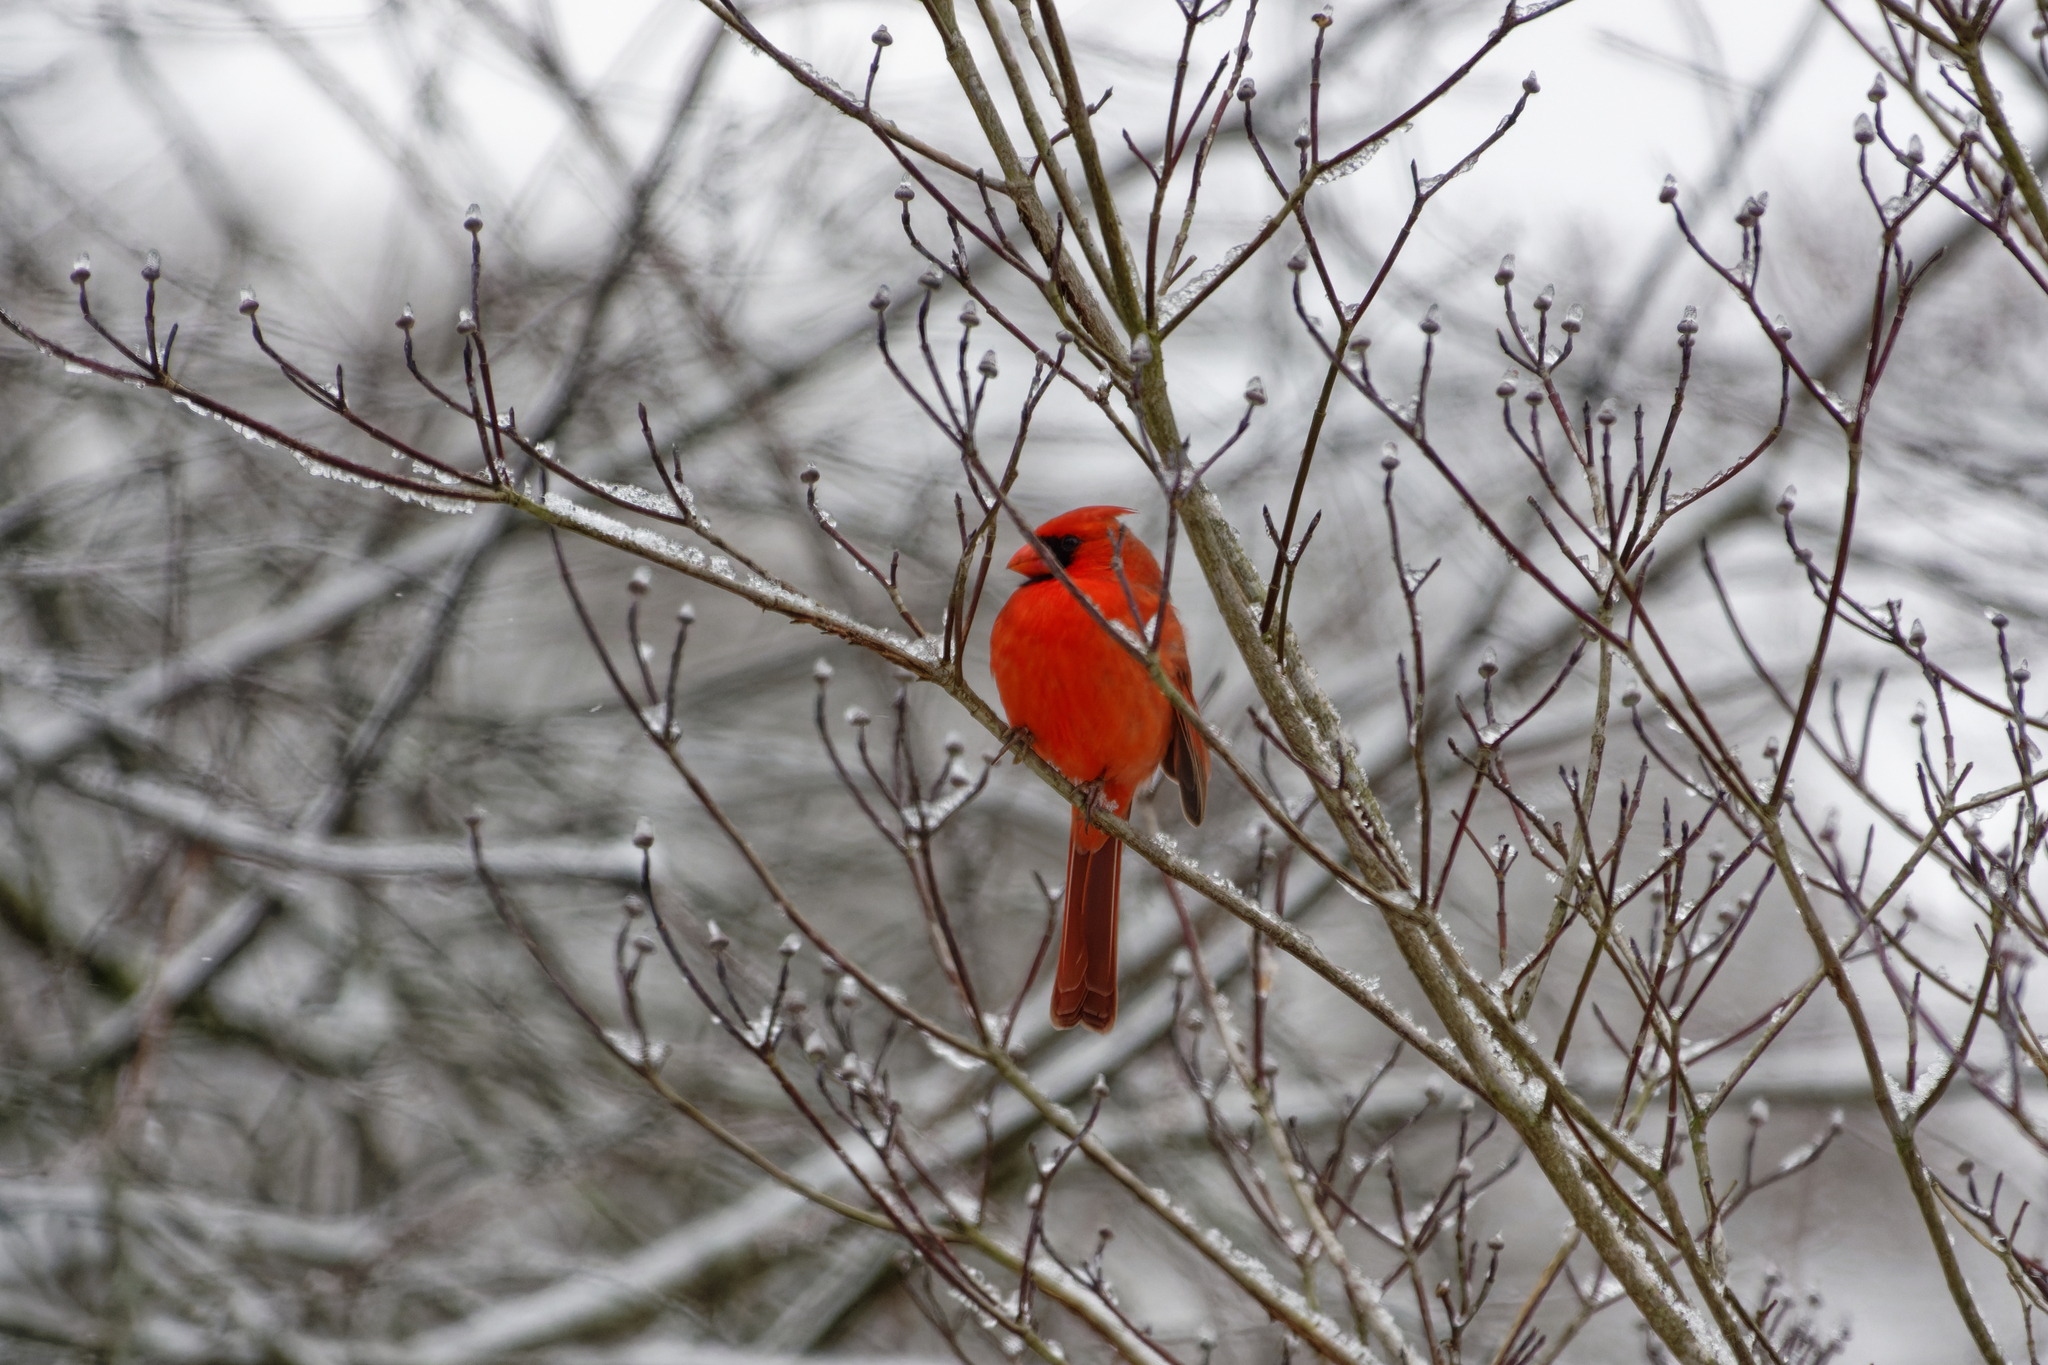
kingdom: Animalia
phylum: Chordata
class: Aves
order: Passeriformes
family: Cardinalidae
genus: Cardinalis
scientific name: Cardinalis cardinalis
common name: Northern cardinal
